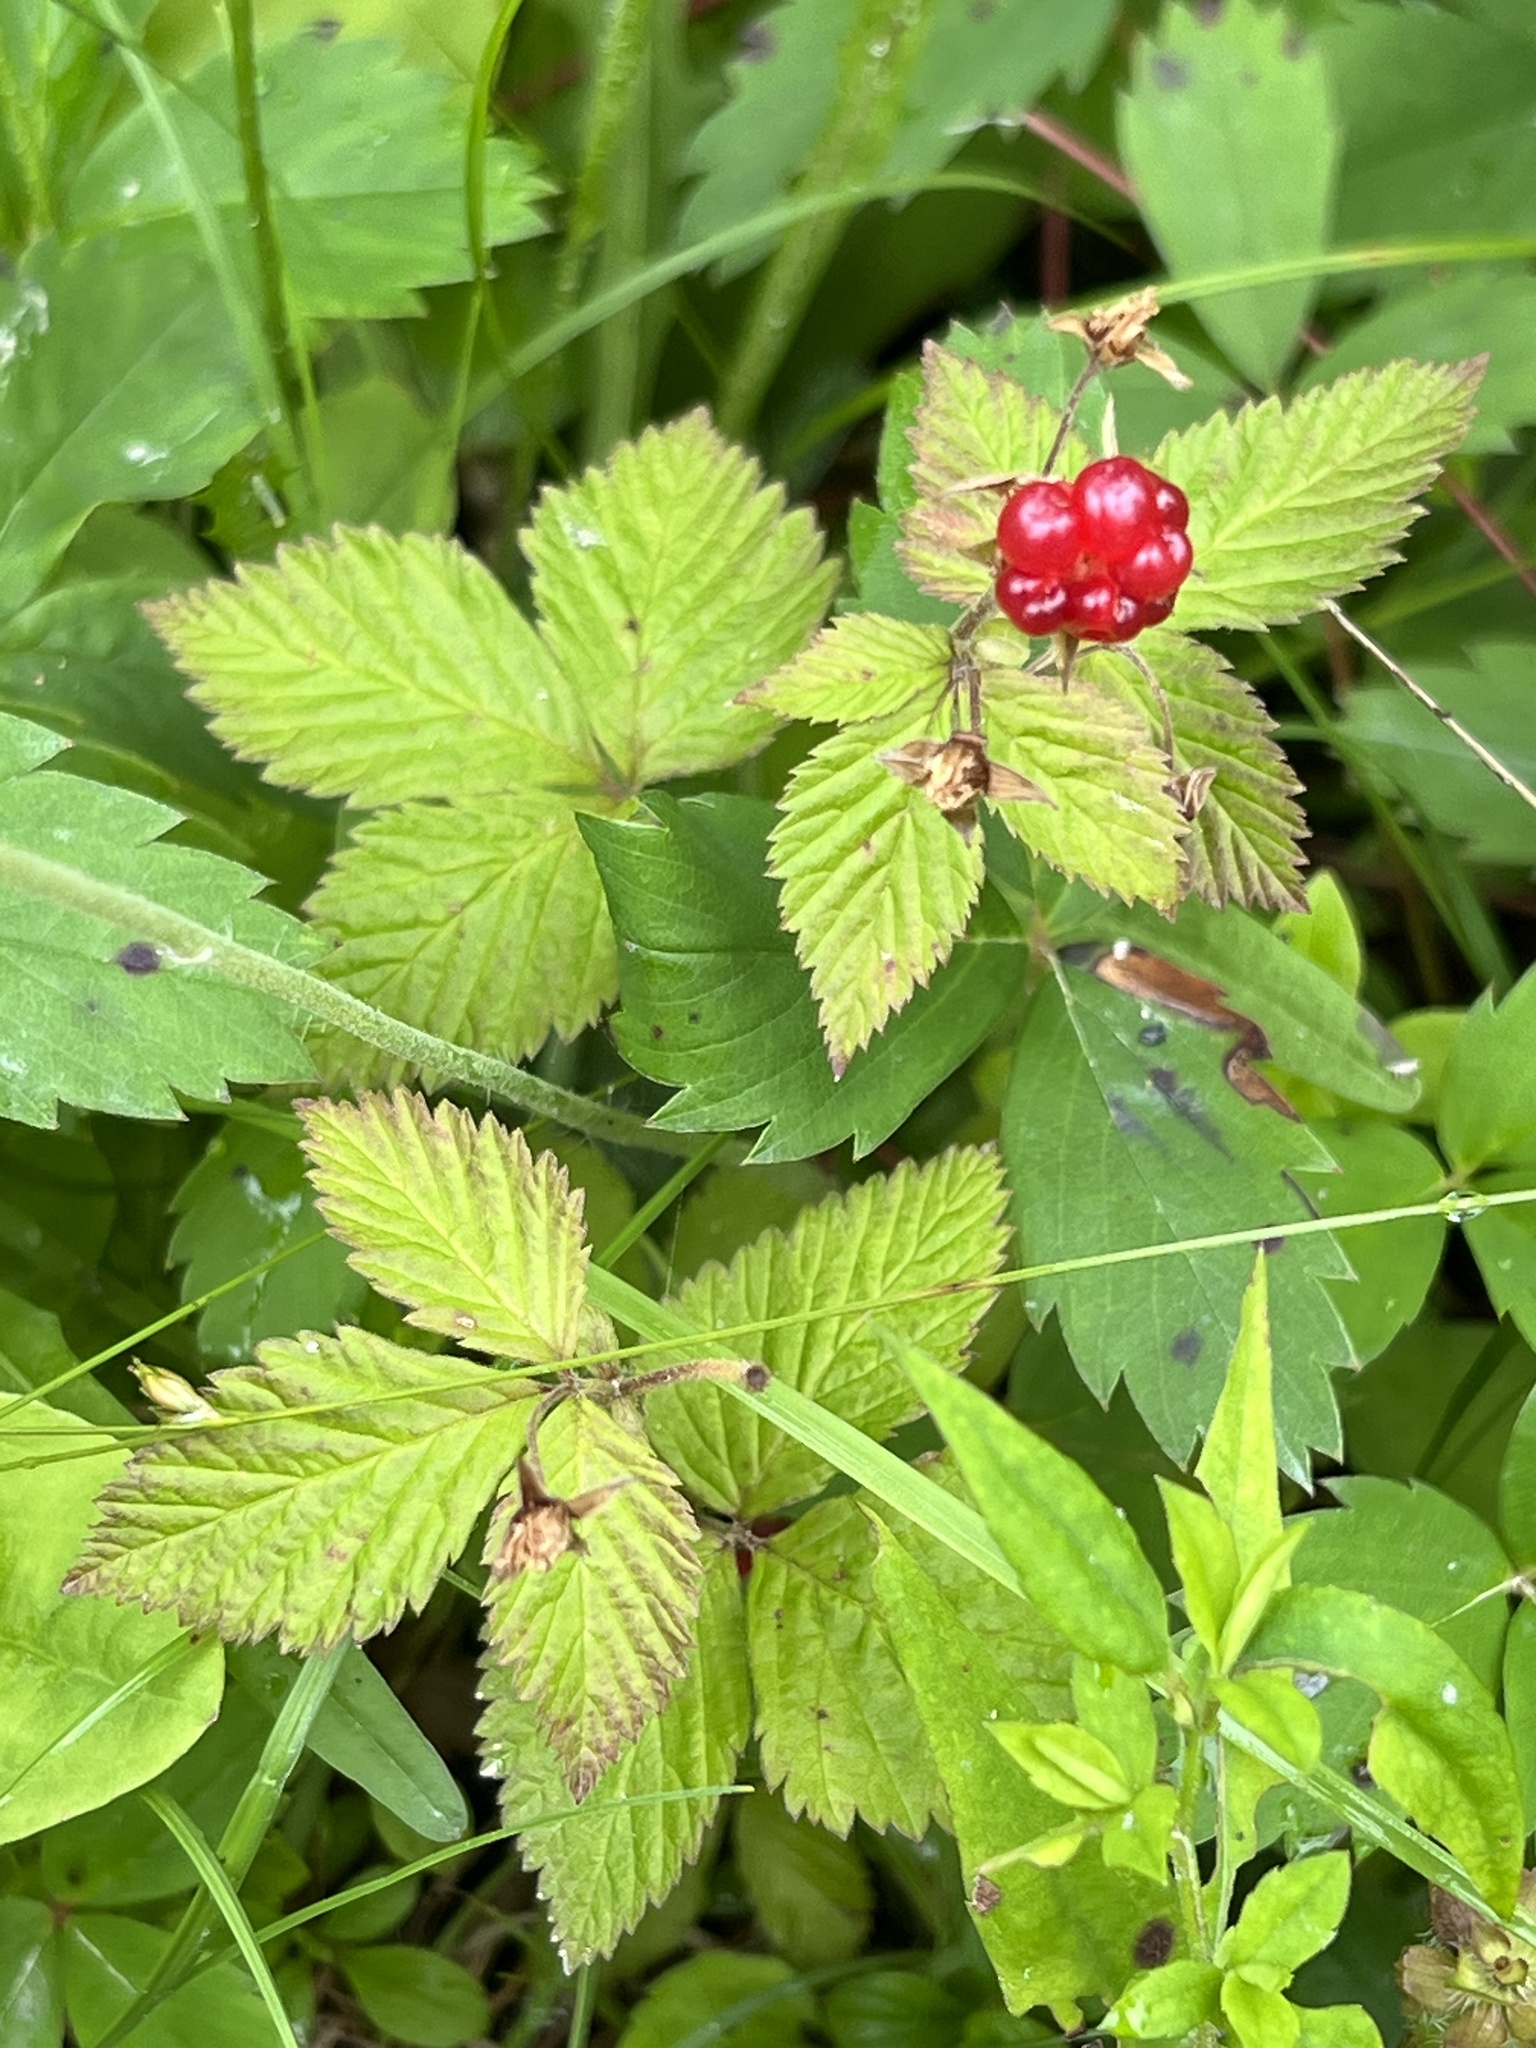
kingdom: Plantae
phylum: Tracheophyta
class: Magnoliopsida
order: Rosales
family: Rosaceae
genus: Rubus
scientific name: Rubus pubescens
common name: Dwarf raspberry
